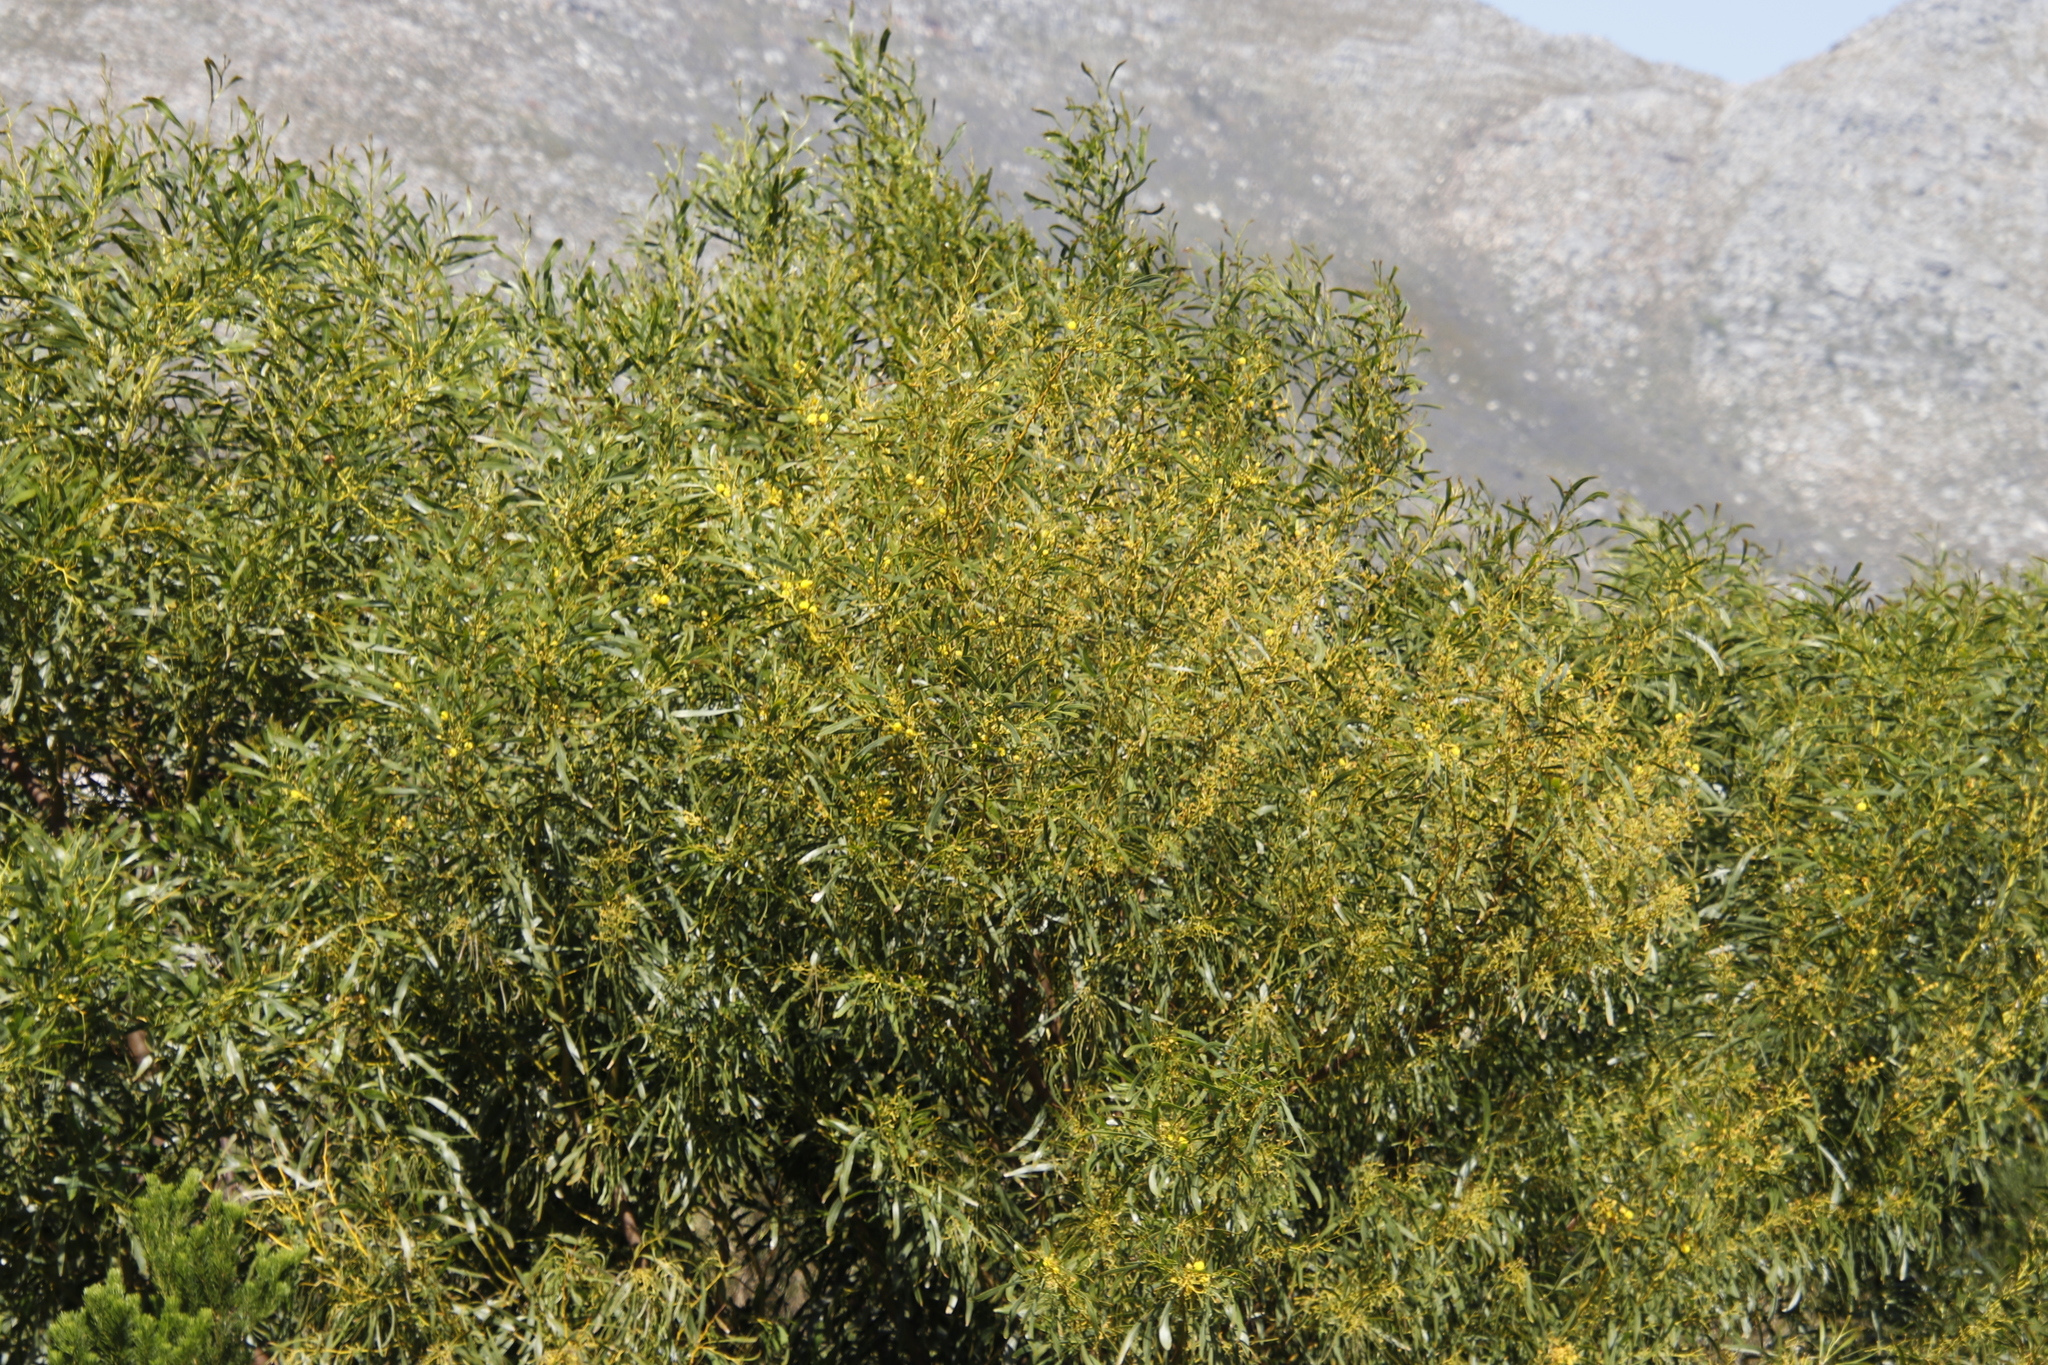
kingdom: Plantae
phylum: Tracheophyta
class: Magnoliopsida
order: Fabales
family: Fabaceae
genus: Acacia
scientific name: Acacia saligna
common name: Orange wattle
